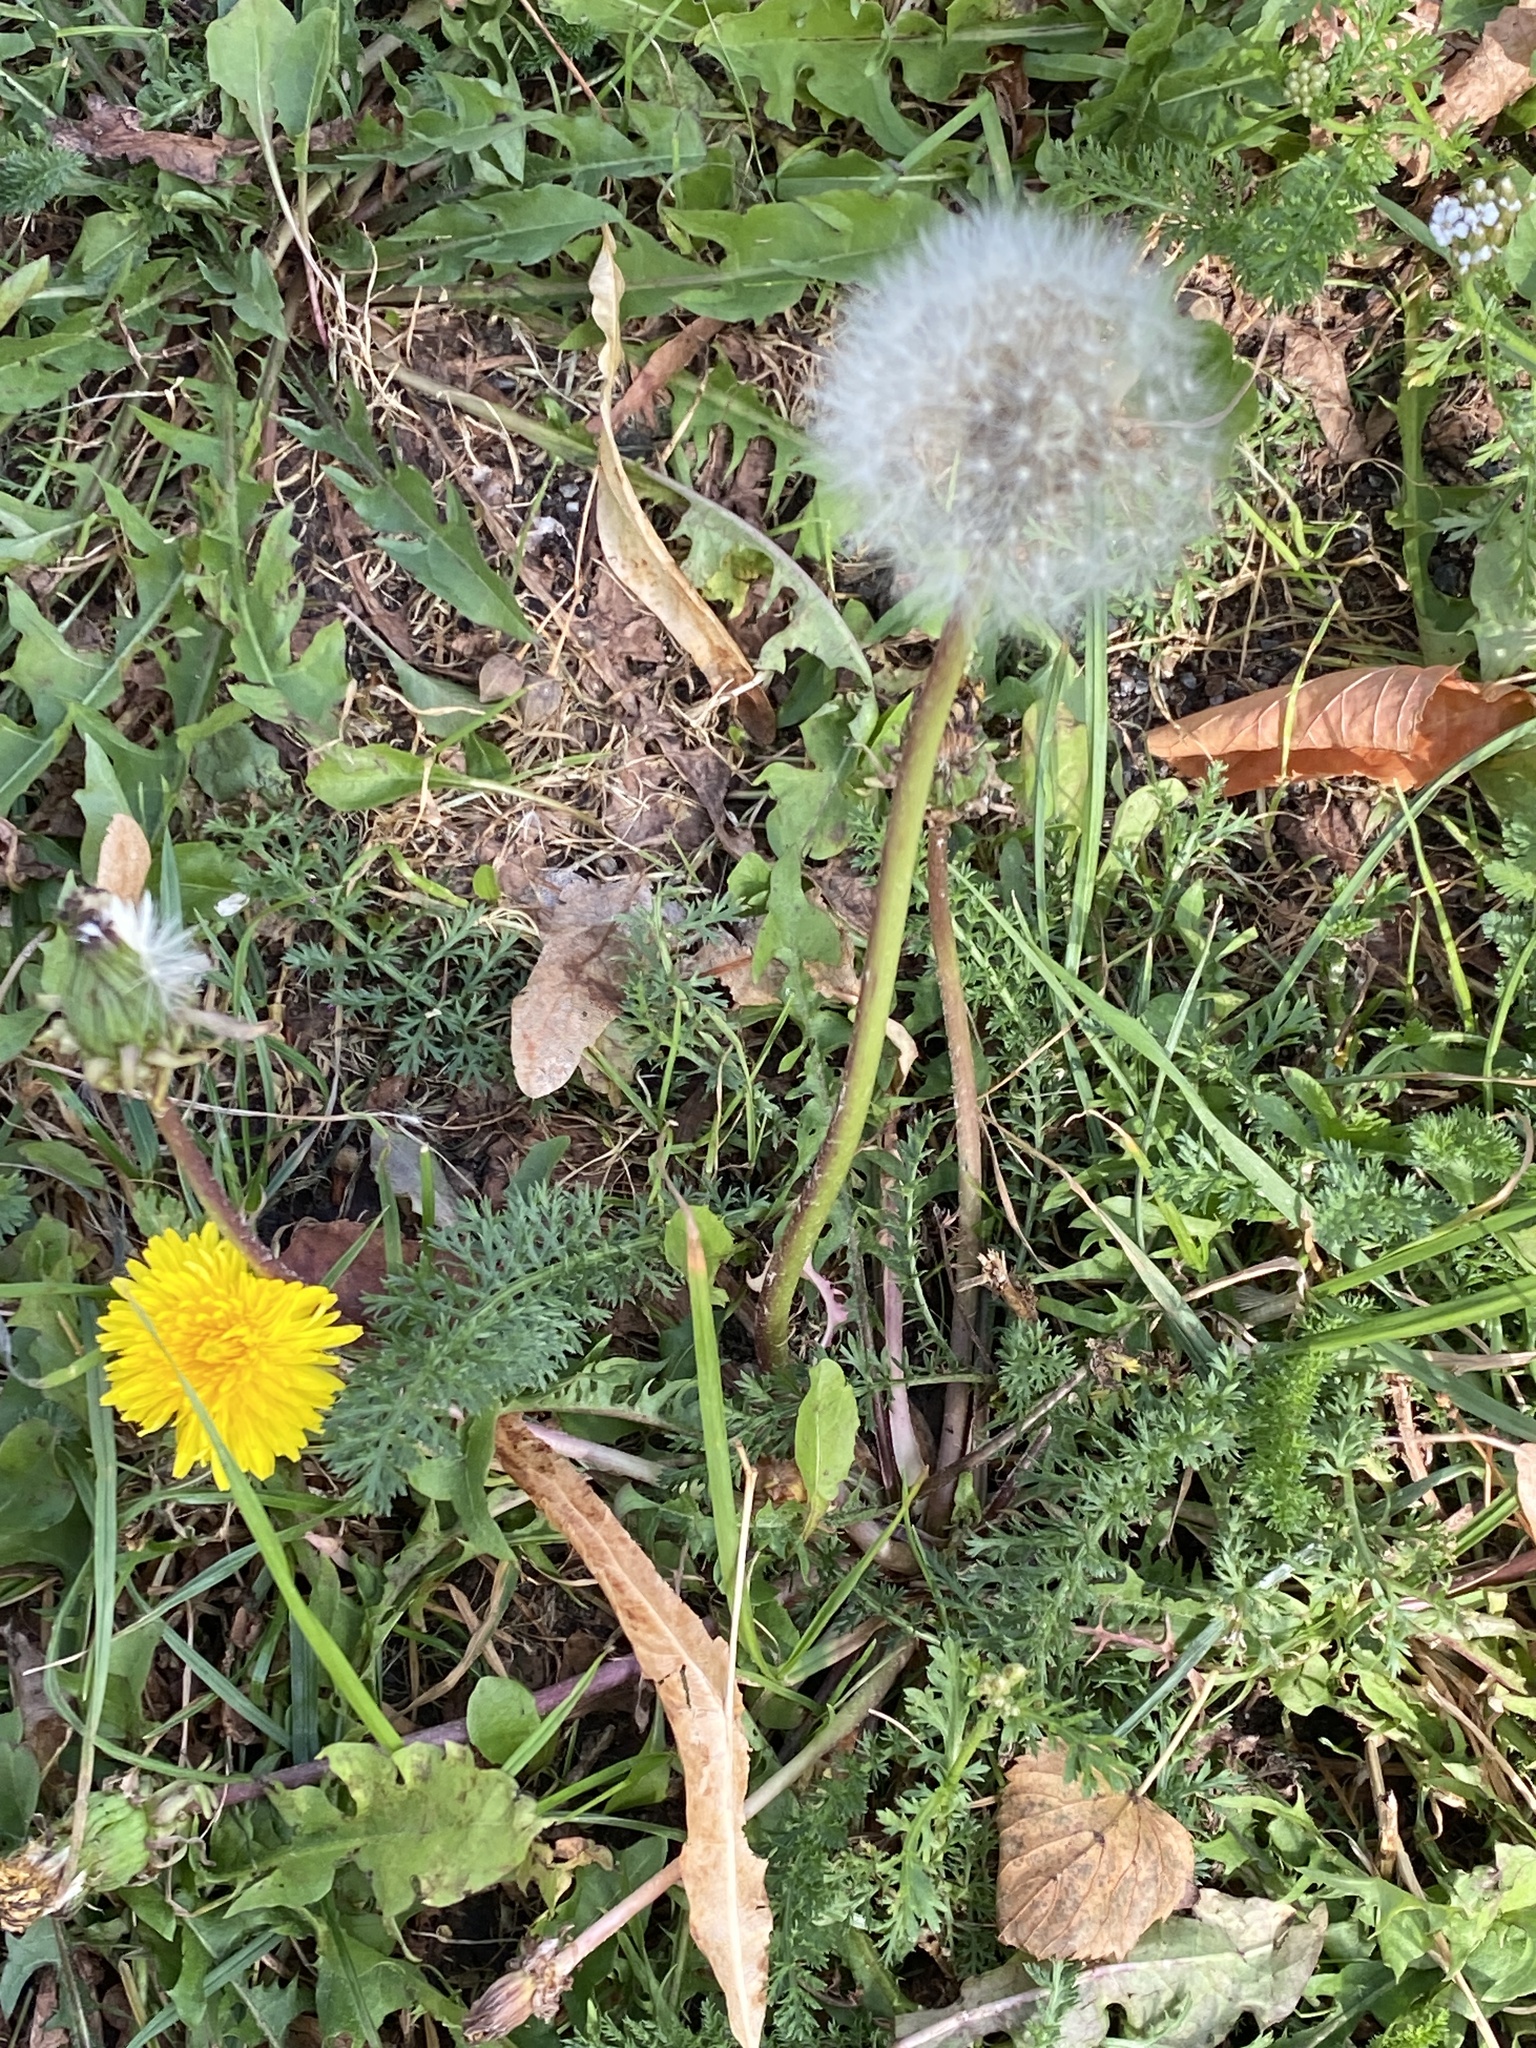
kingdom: Plantae
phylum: Tracheophyta
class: Magnoliopsida
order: Asterales
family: Asteraceae
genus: Taraxacum
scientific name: Taraxacum officinale
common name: Common dandelion
